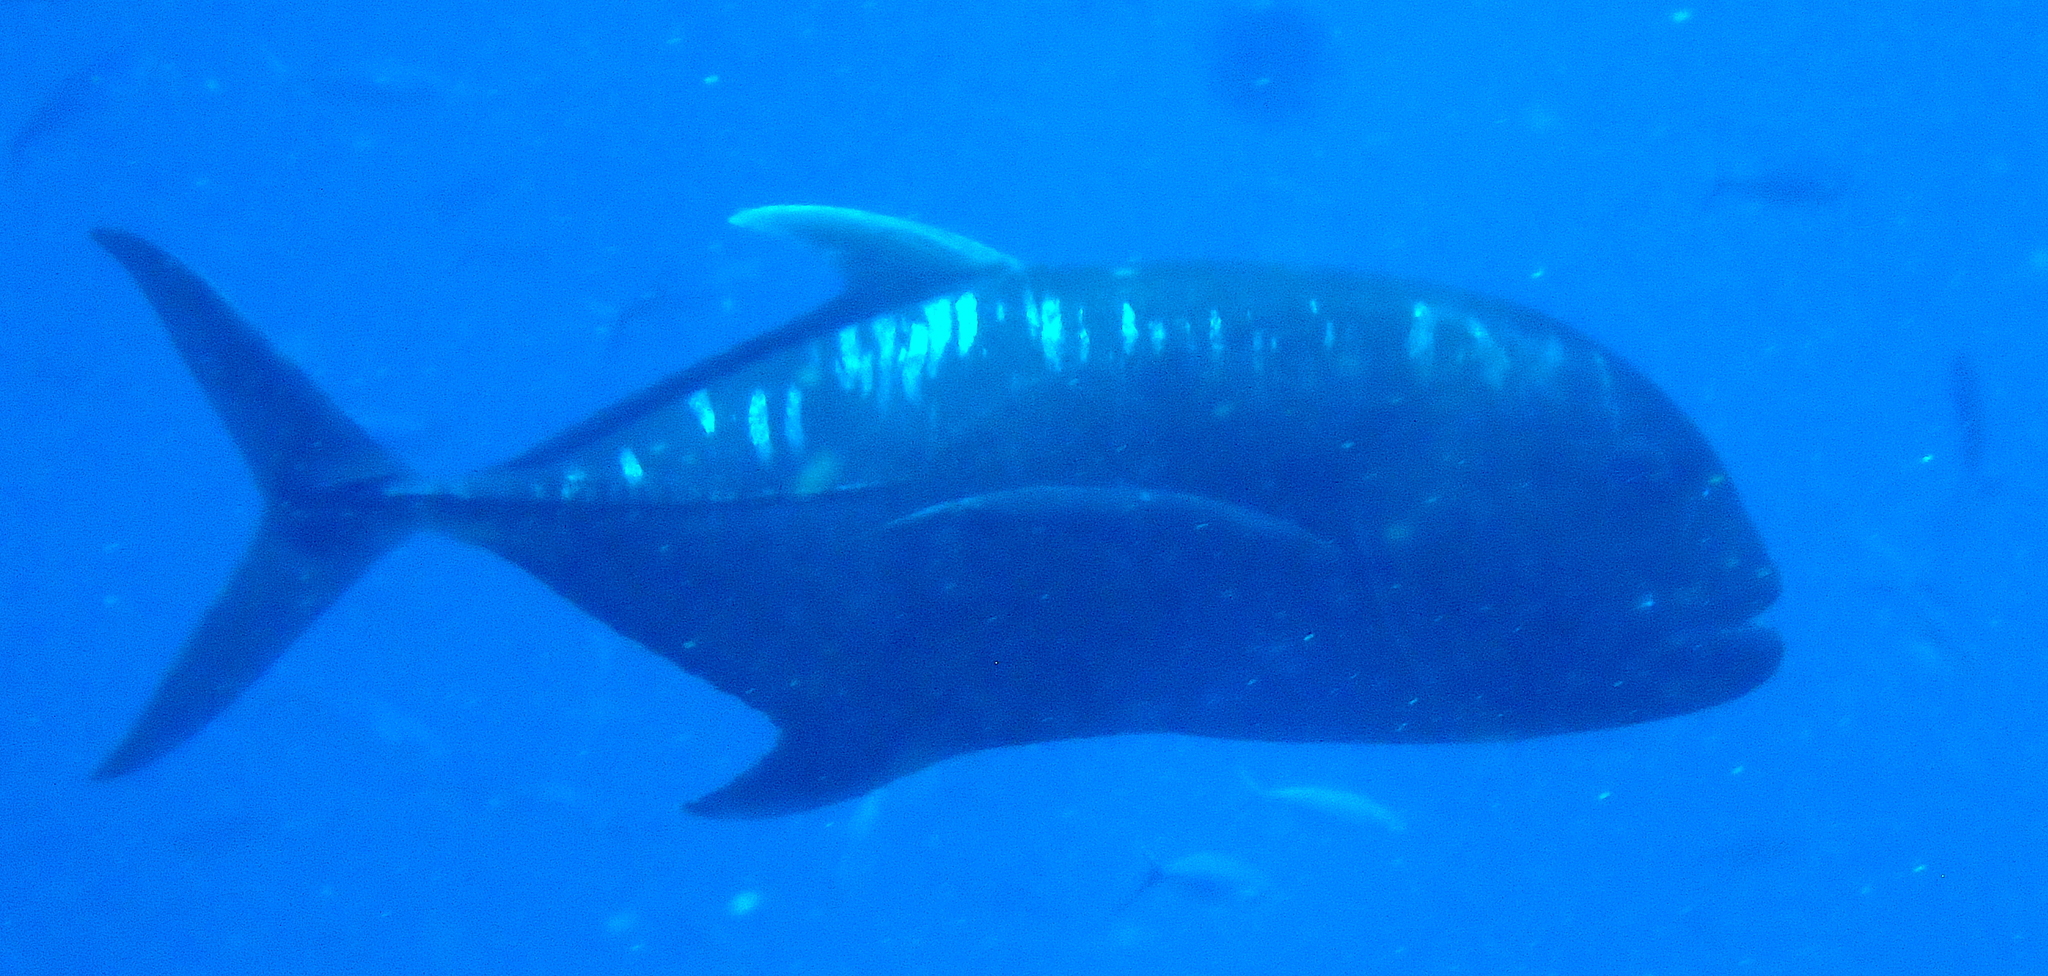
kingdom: Animalia
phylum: Chordata
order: Perciformes
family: Carangidae
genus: Caranx
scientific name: Caranx ignobilis
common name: Giant trevally
